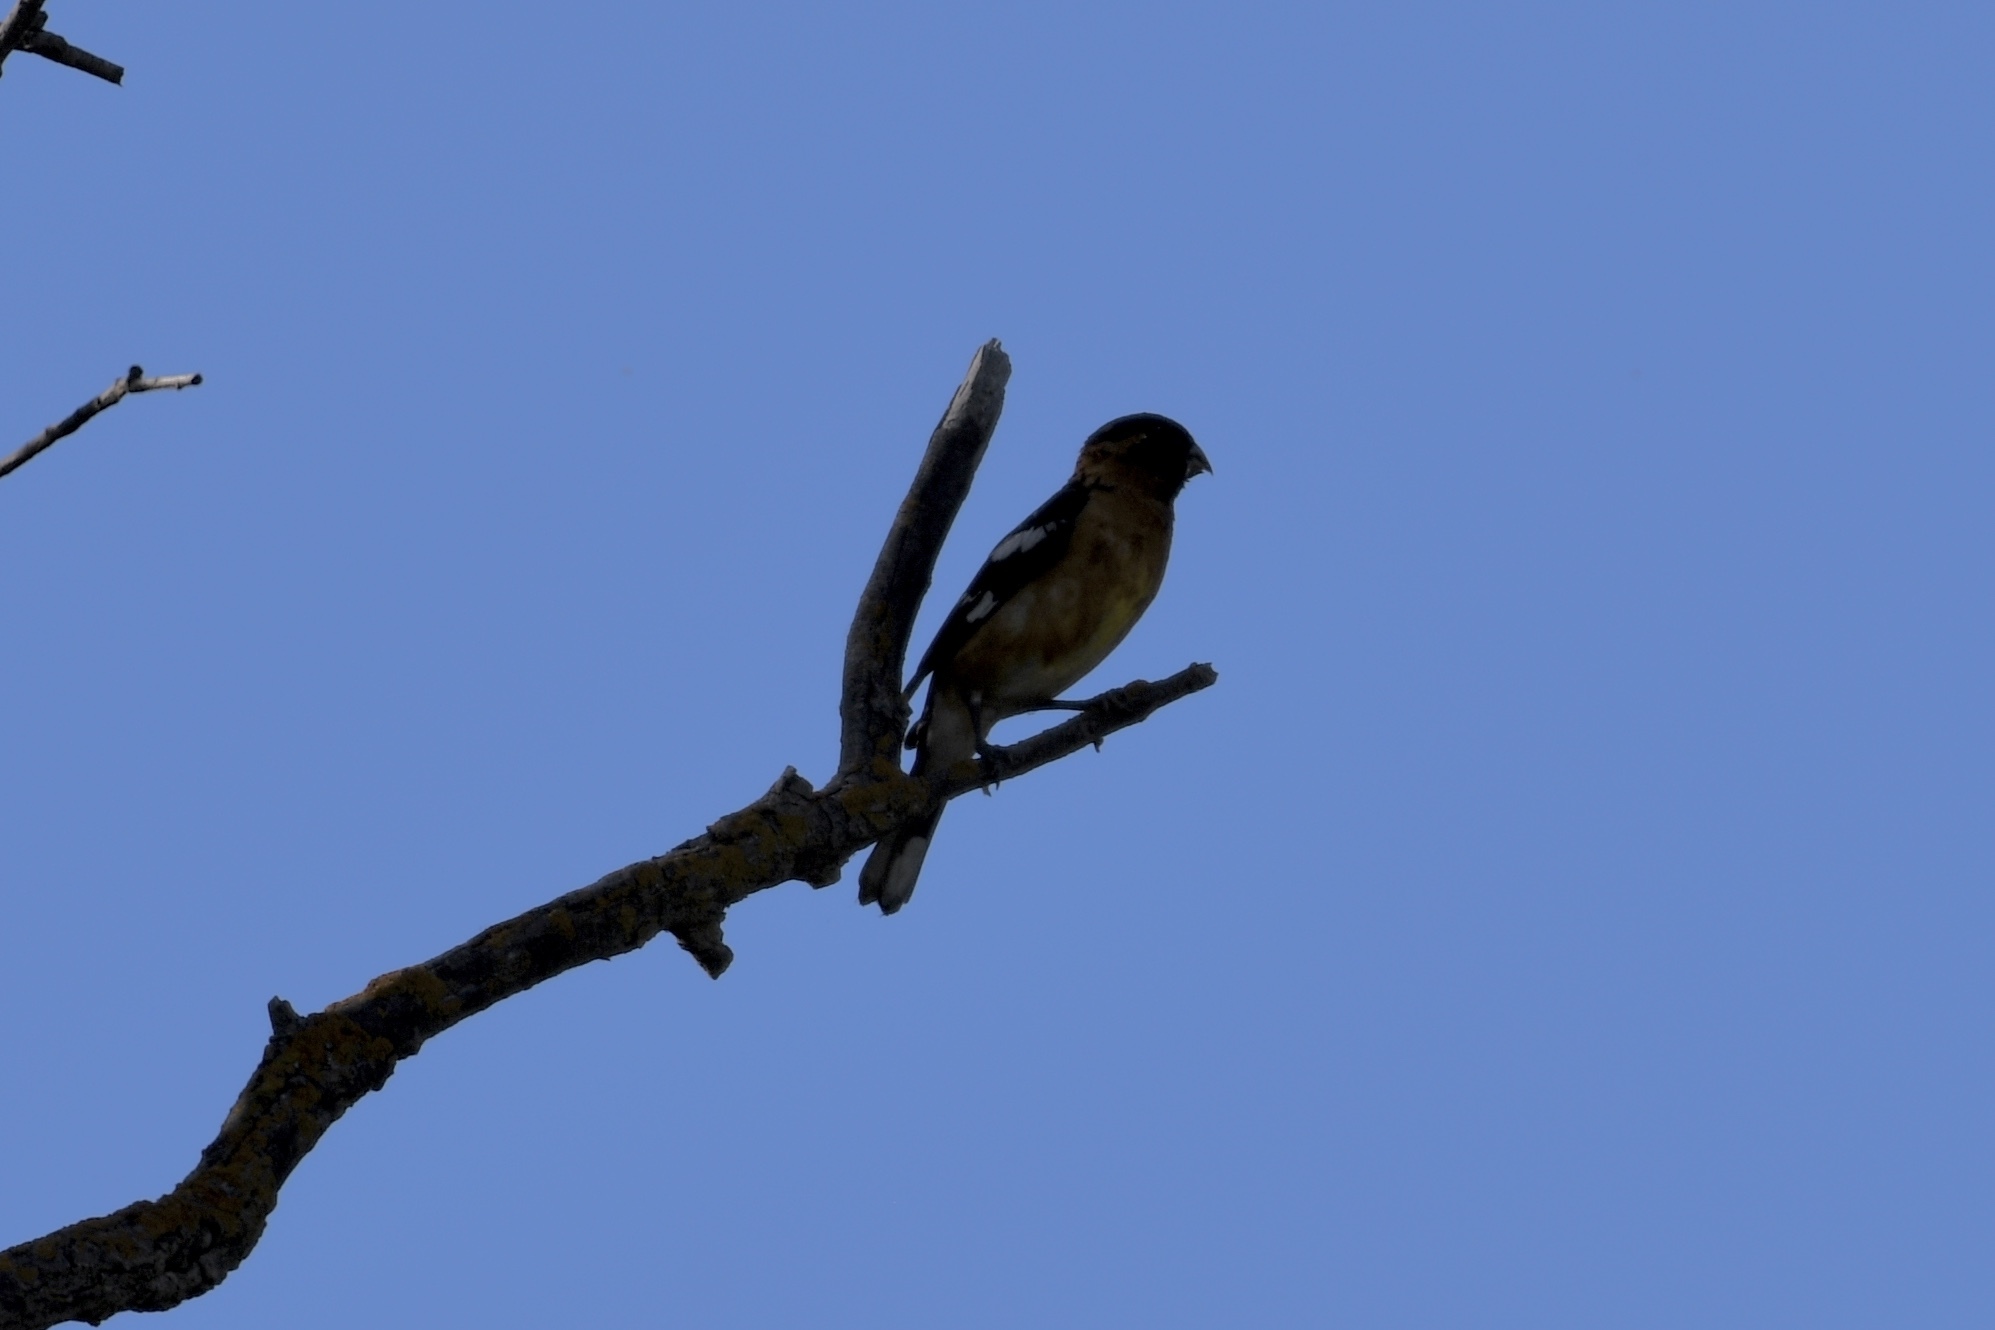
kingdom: Animalia
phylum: Chordata
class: Aves
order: Passeriformes
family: Cardinalidae
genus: Pheucticus
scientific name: Pheucticus melanocephalus
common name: Black-headed grosbeak
